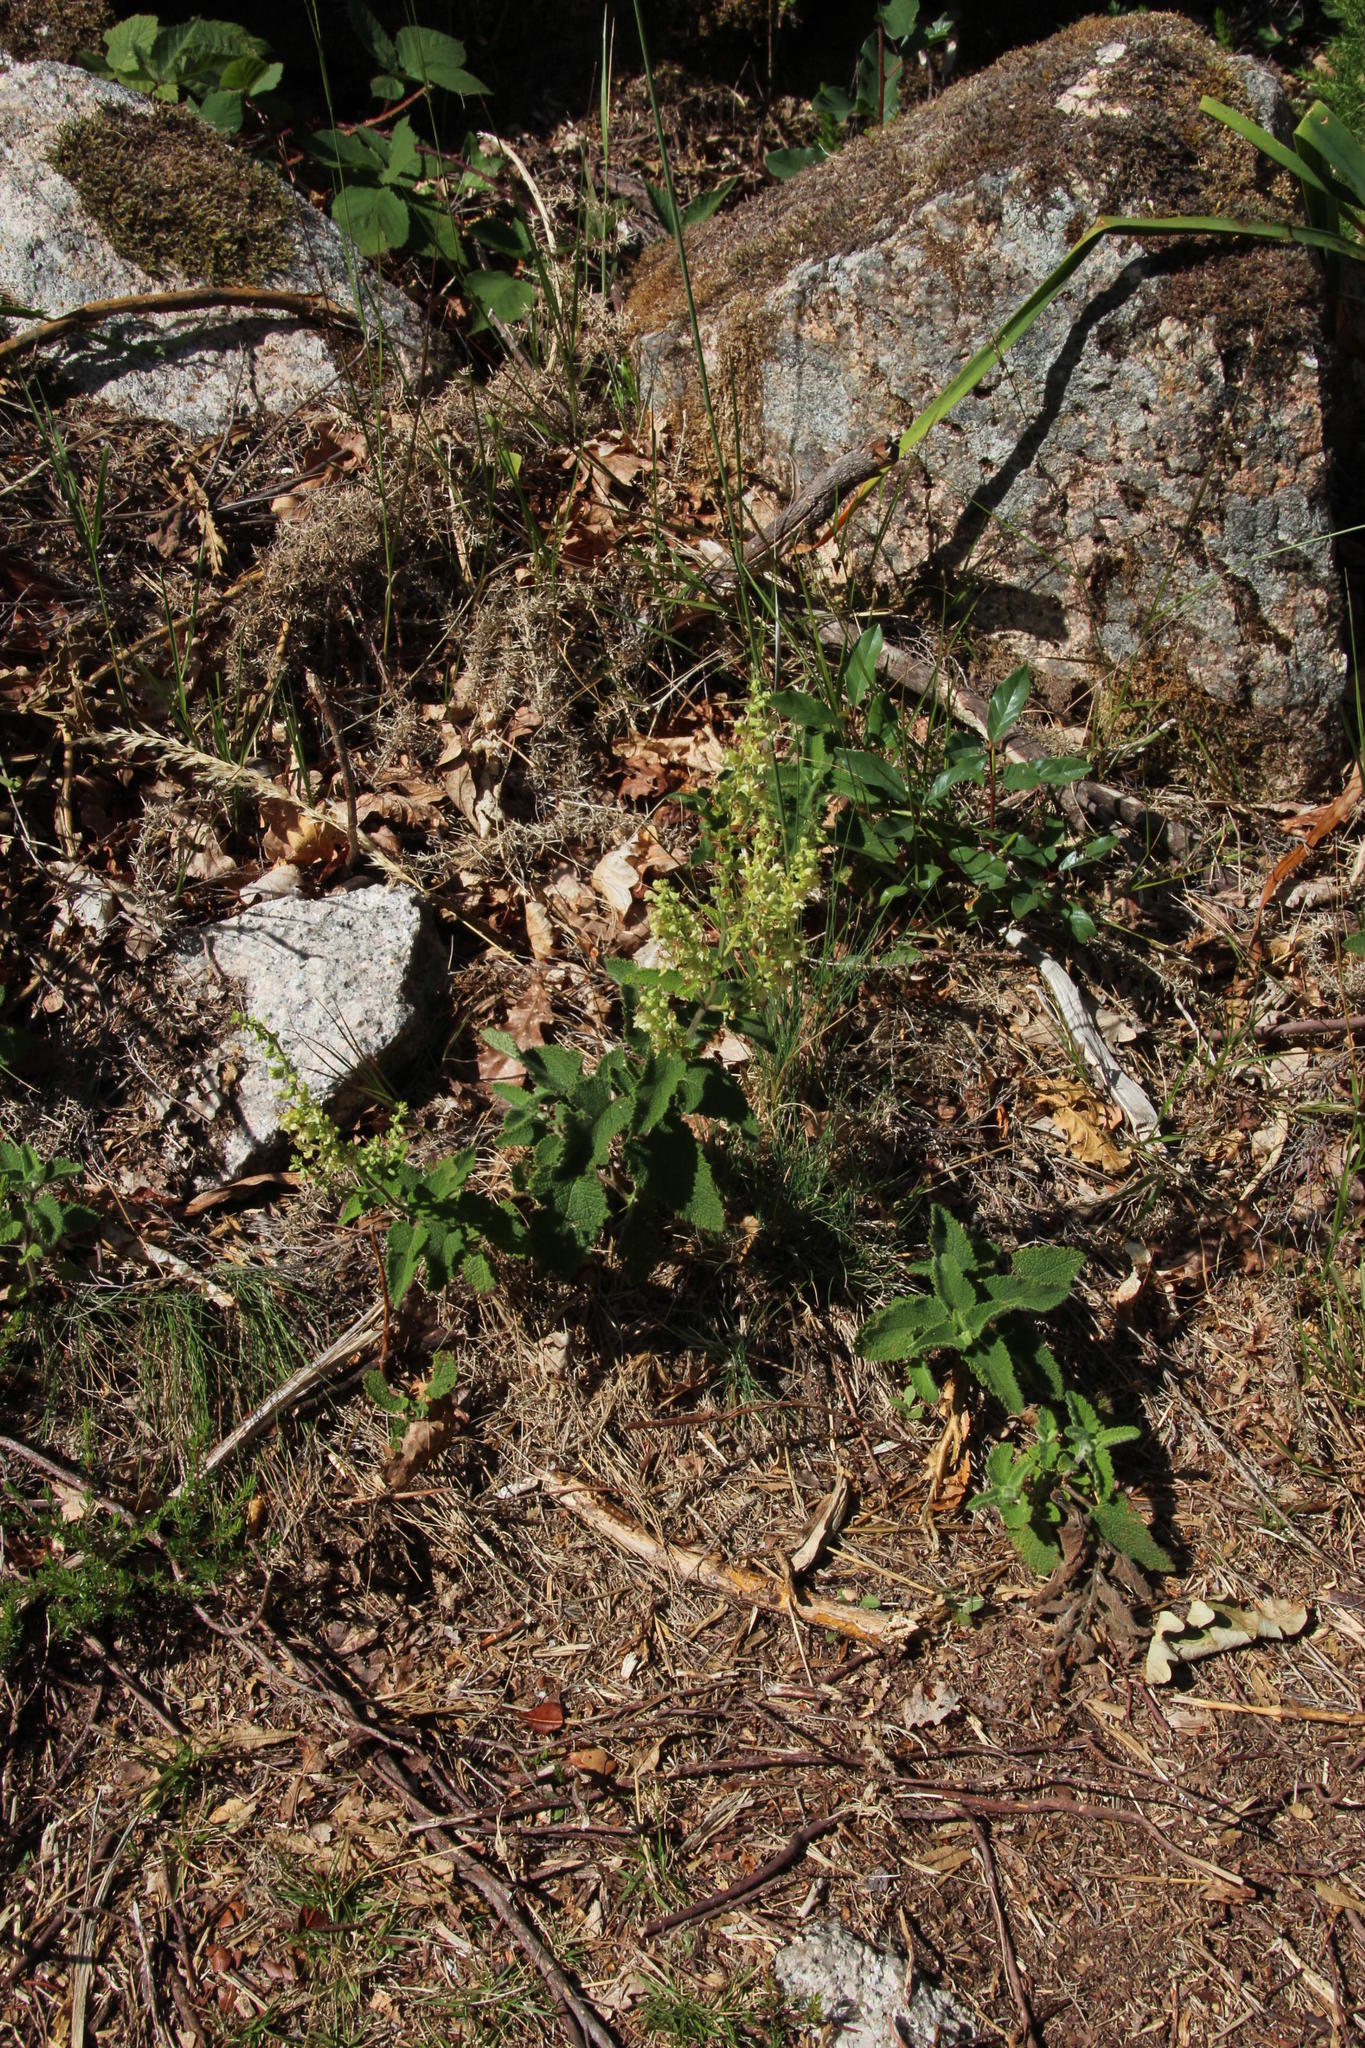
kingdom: Plantae
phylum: Tracheophyta
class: Magnoliopsida
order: Lamiales
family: Lamiaceae
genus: Teucrium
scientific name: Teucrium scorodonia
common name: Woodland germander
